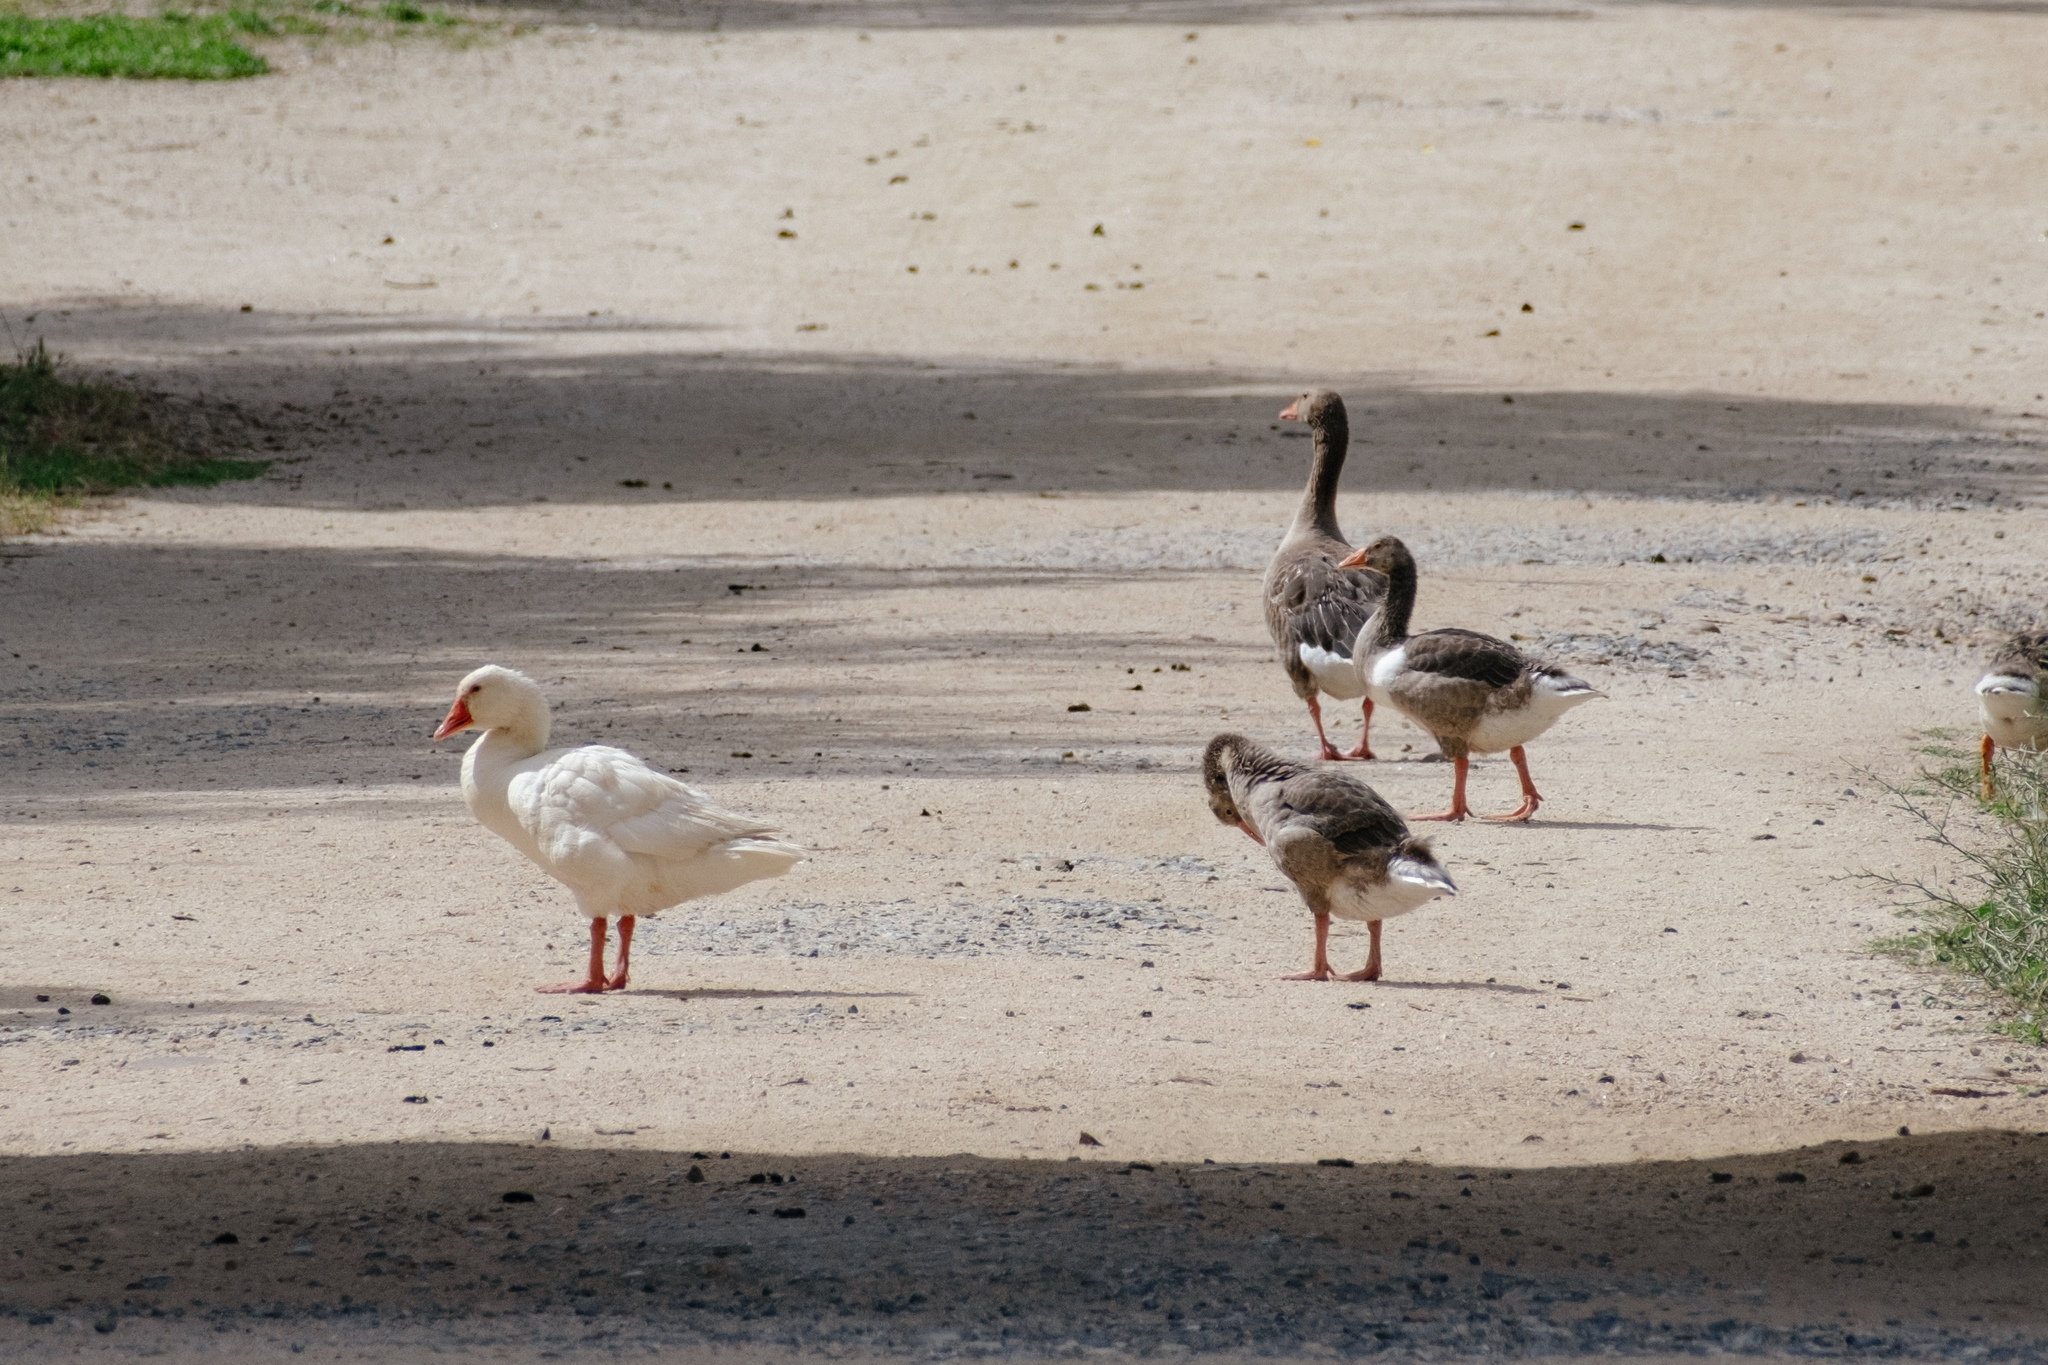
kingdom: Animalia
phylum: Chordata
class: Aves
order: Anseriformes
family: Anatidae
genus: Anser
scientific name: Anser anser
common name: Greylag goose
